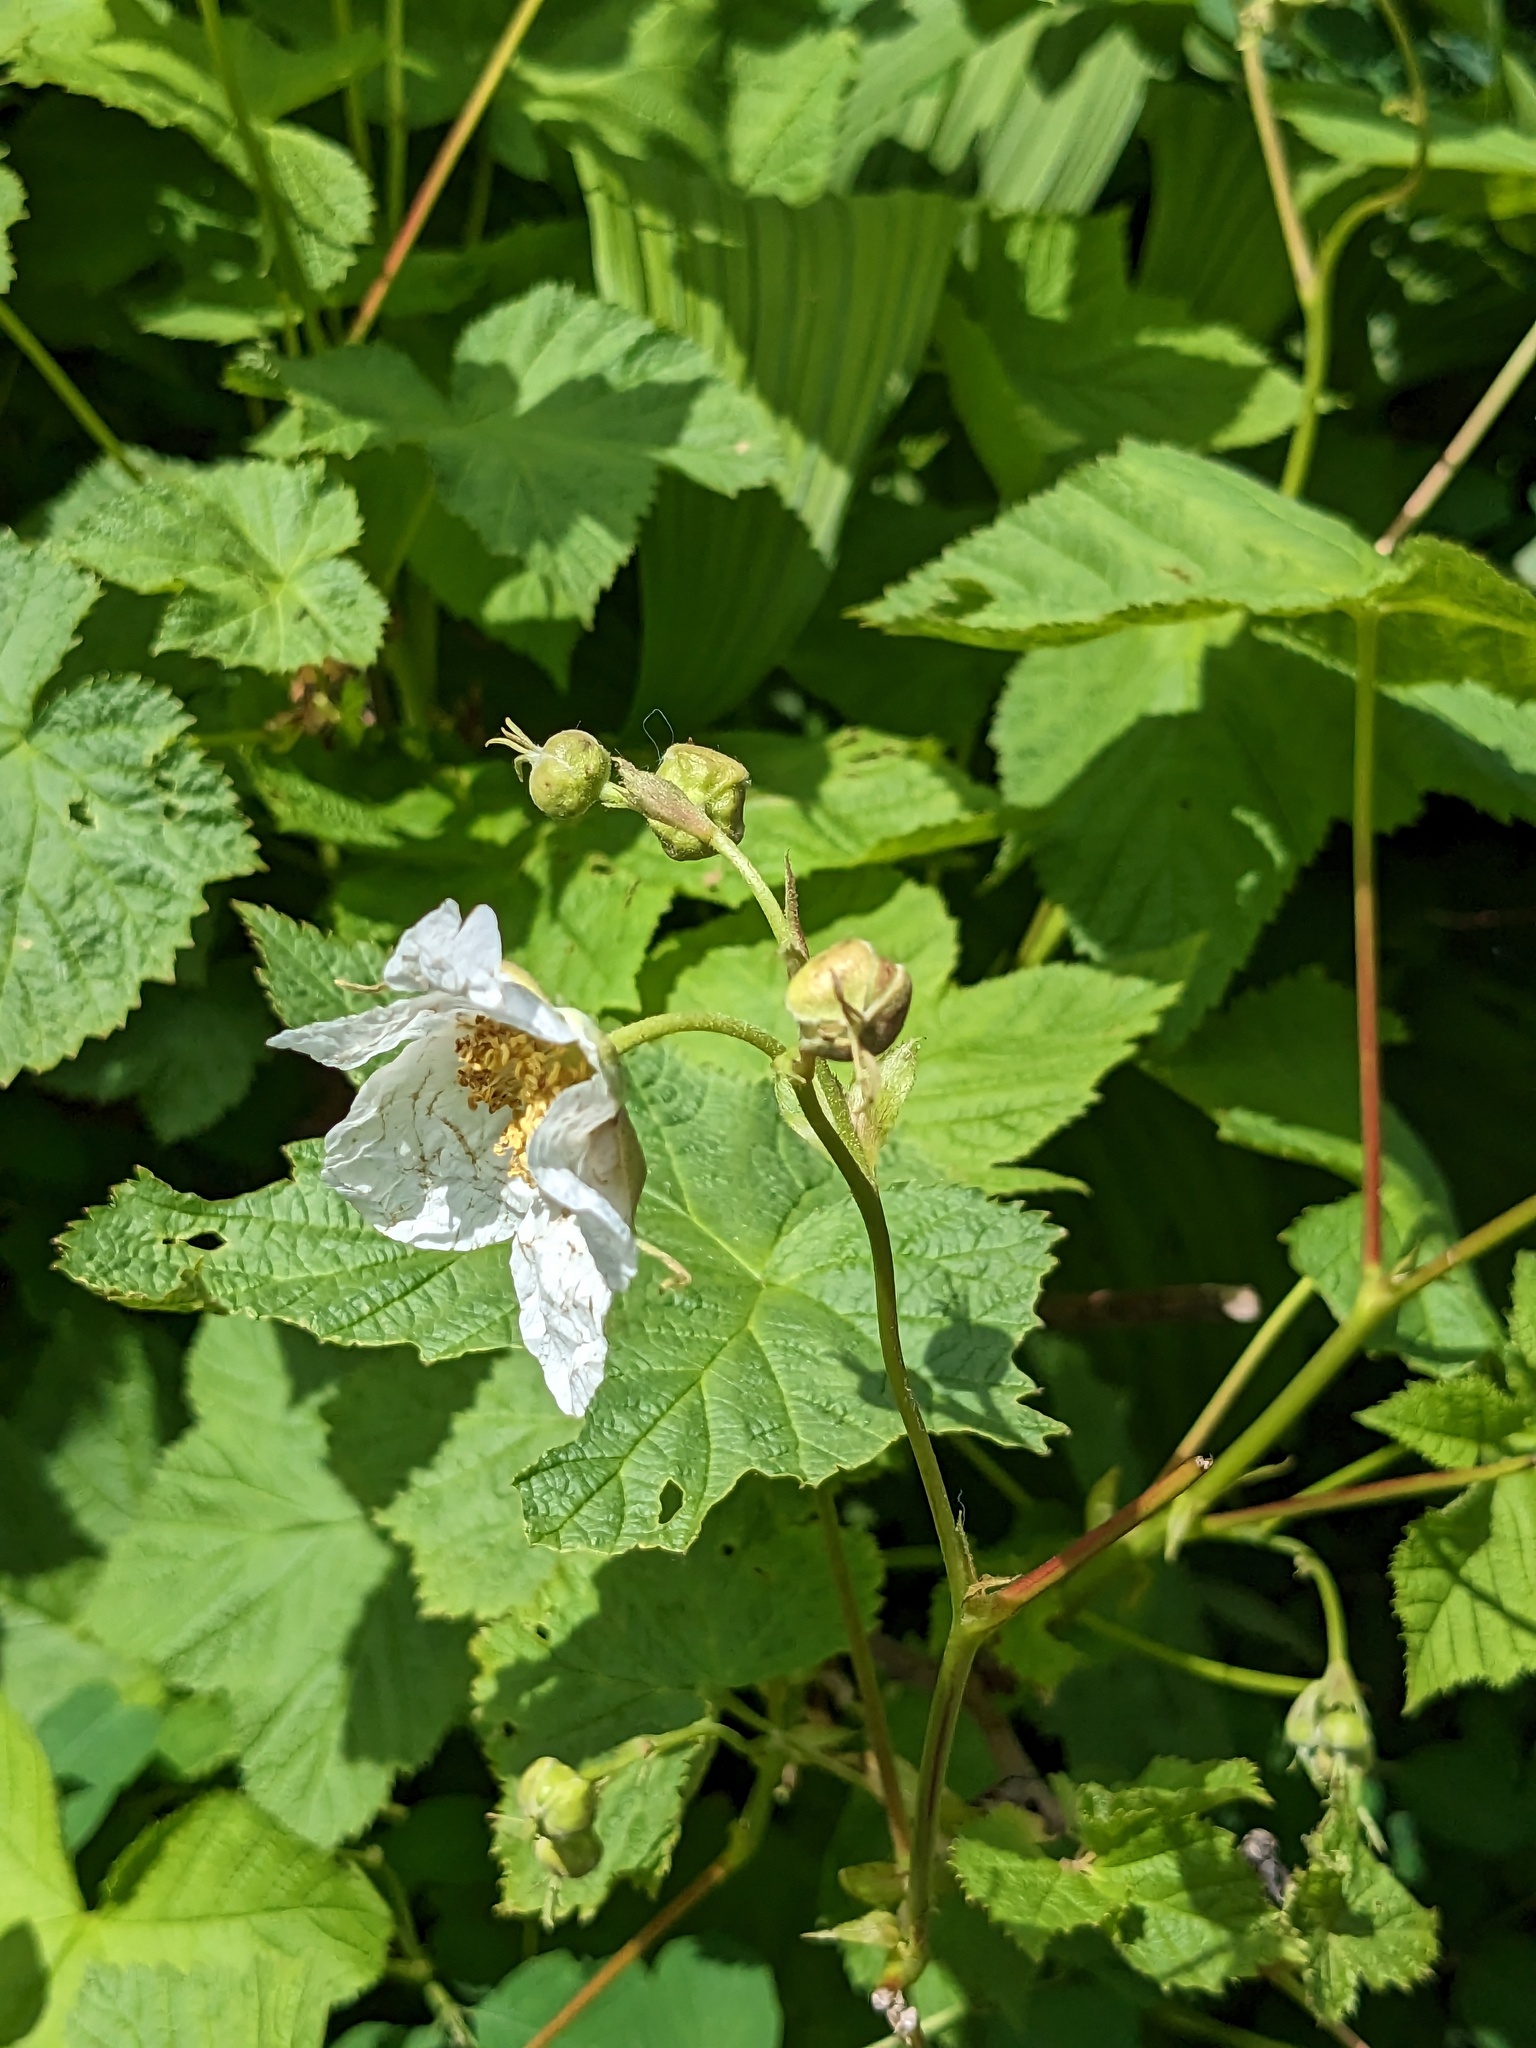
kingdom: Plantae
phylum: Tracheophyta
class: Magnoliopsida
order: Rosales
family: Rosaceae
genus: Rubus
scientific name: Rubus parviflorus
